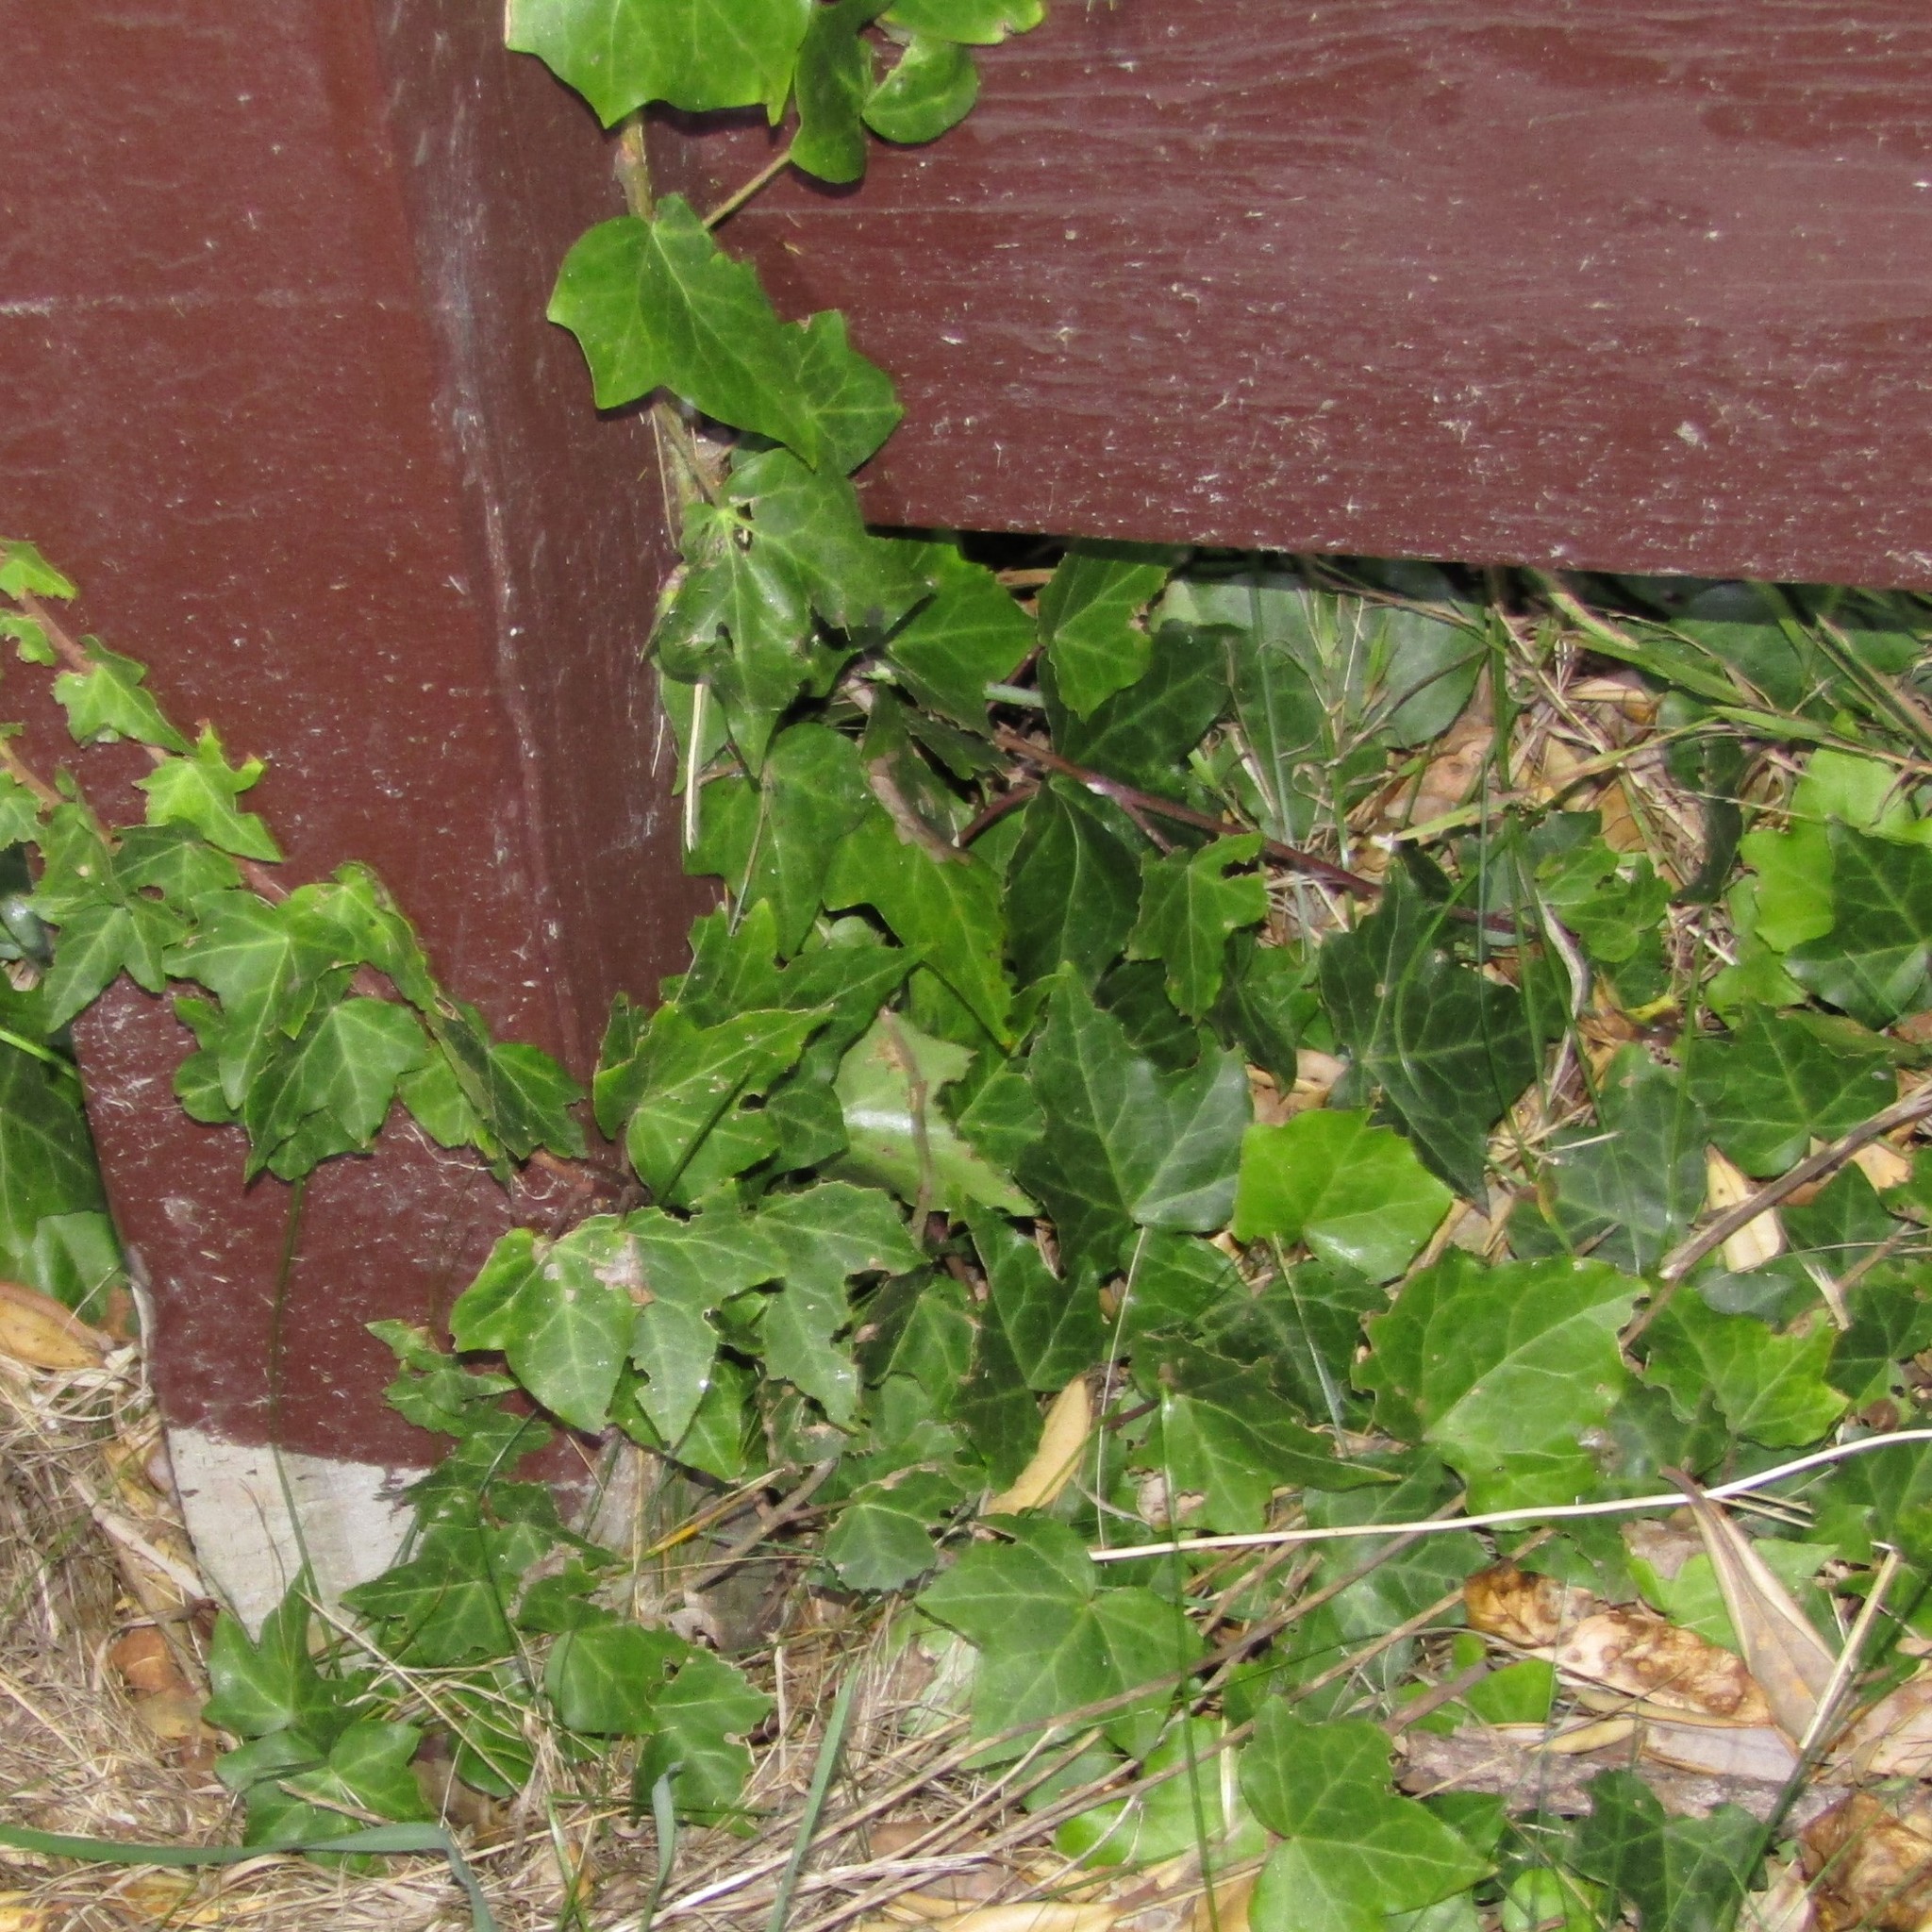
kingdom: Plantae
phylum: Tracheophyta
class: Magnoliopsida
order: Apiales
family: Araliaceae
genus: Hedera
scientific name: Hedera helix
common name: Ivy
